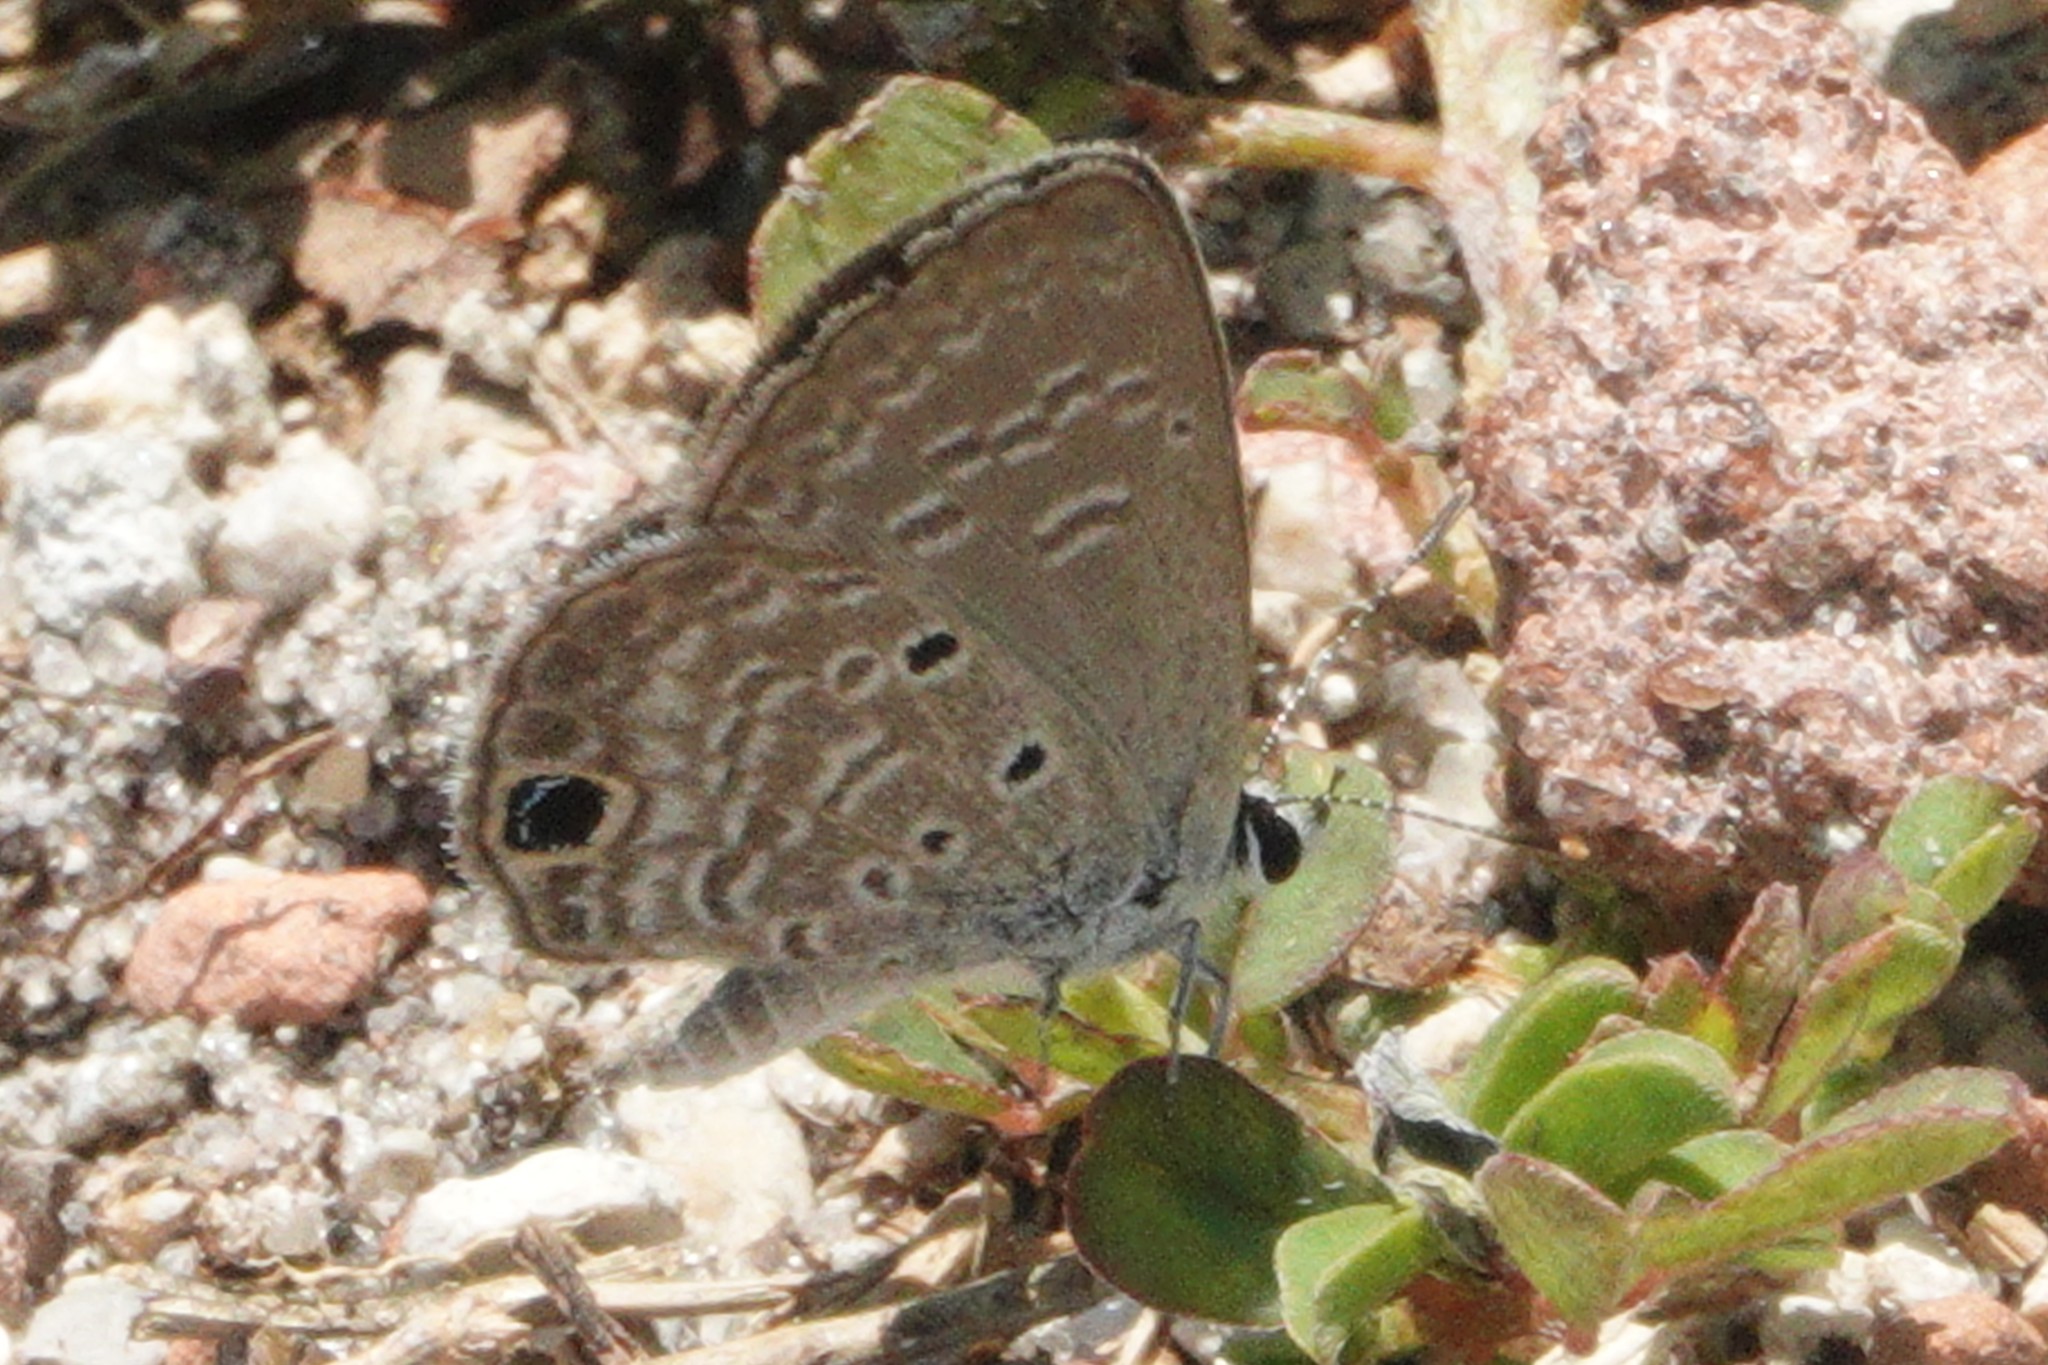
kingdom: Animalia
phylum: Arthropoda
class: Insecta
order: Lepidoptera
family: Lycaenidae
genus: Hemiargus
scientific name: Hemiargus ceraunus
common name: Ceraunus blue
